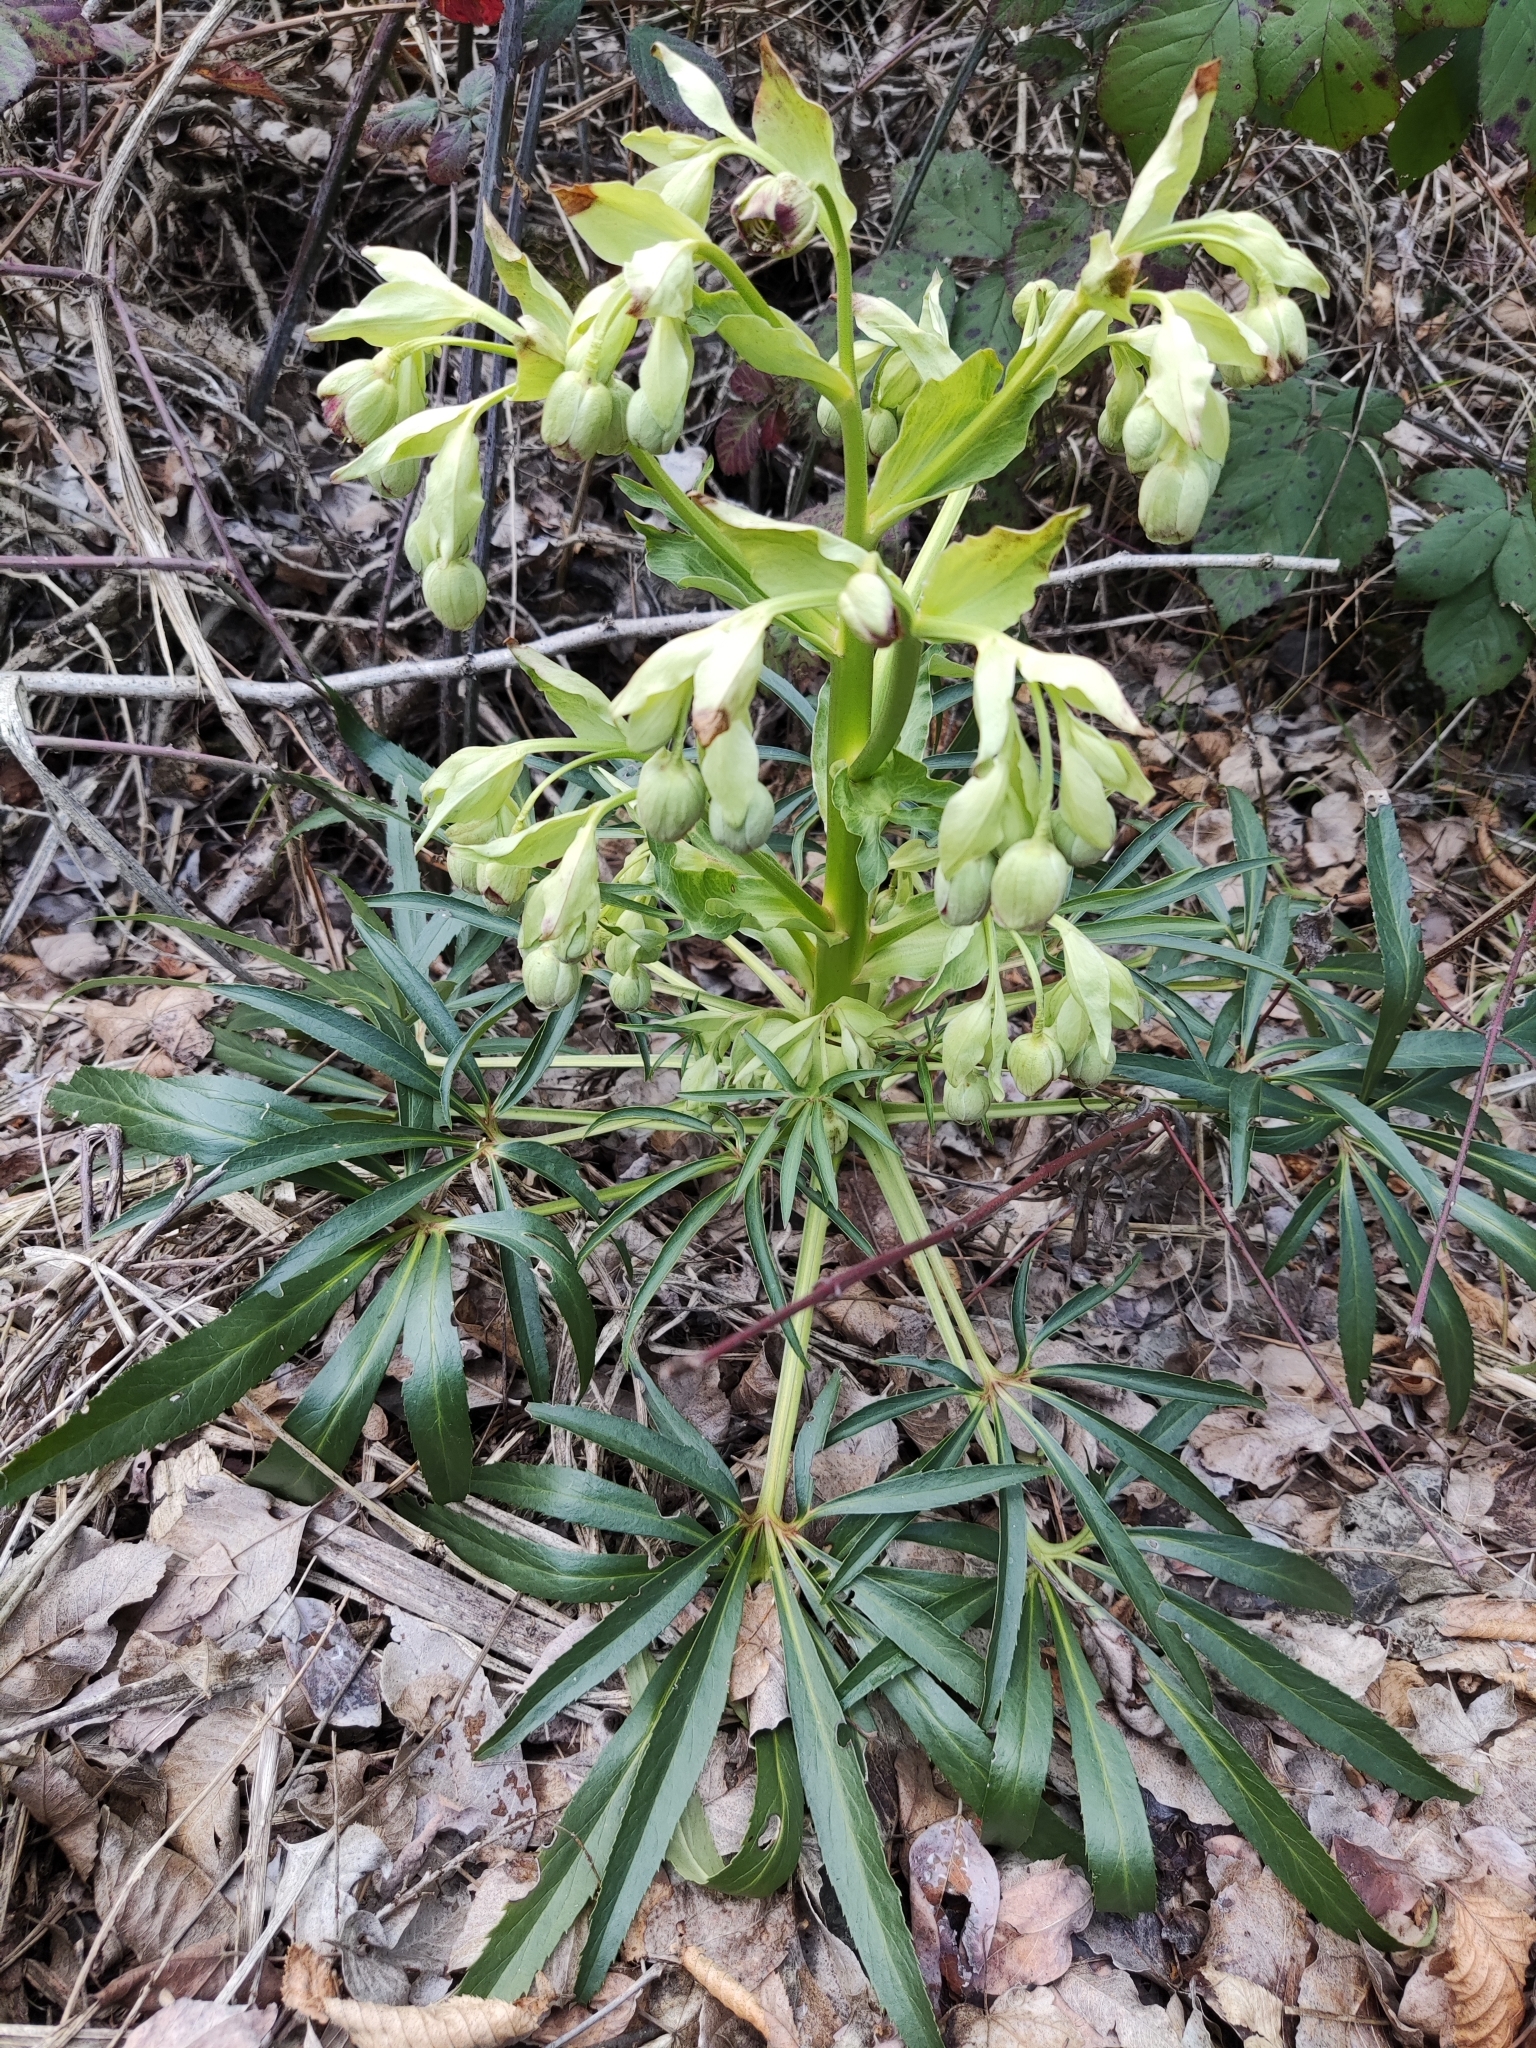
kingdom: Plantae
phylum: Tracheophyta
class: Magnoliopsida
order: Ranunculales
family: Ranunculaceae
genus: Helleborus
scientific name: Helleborus foetidus
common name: Stinking hellebore
